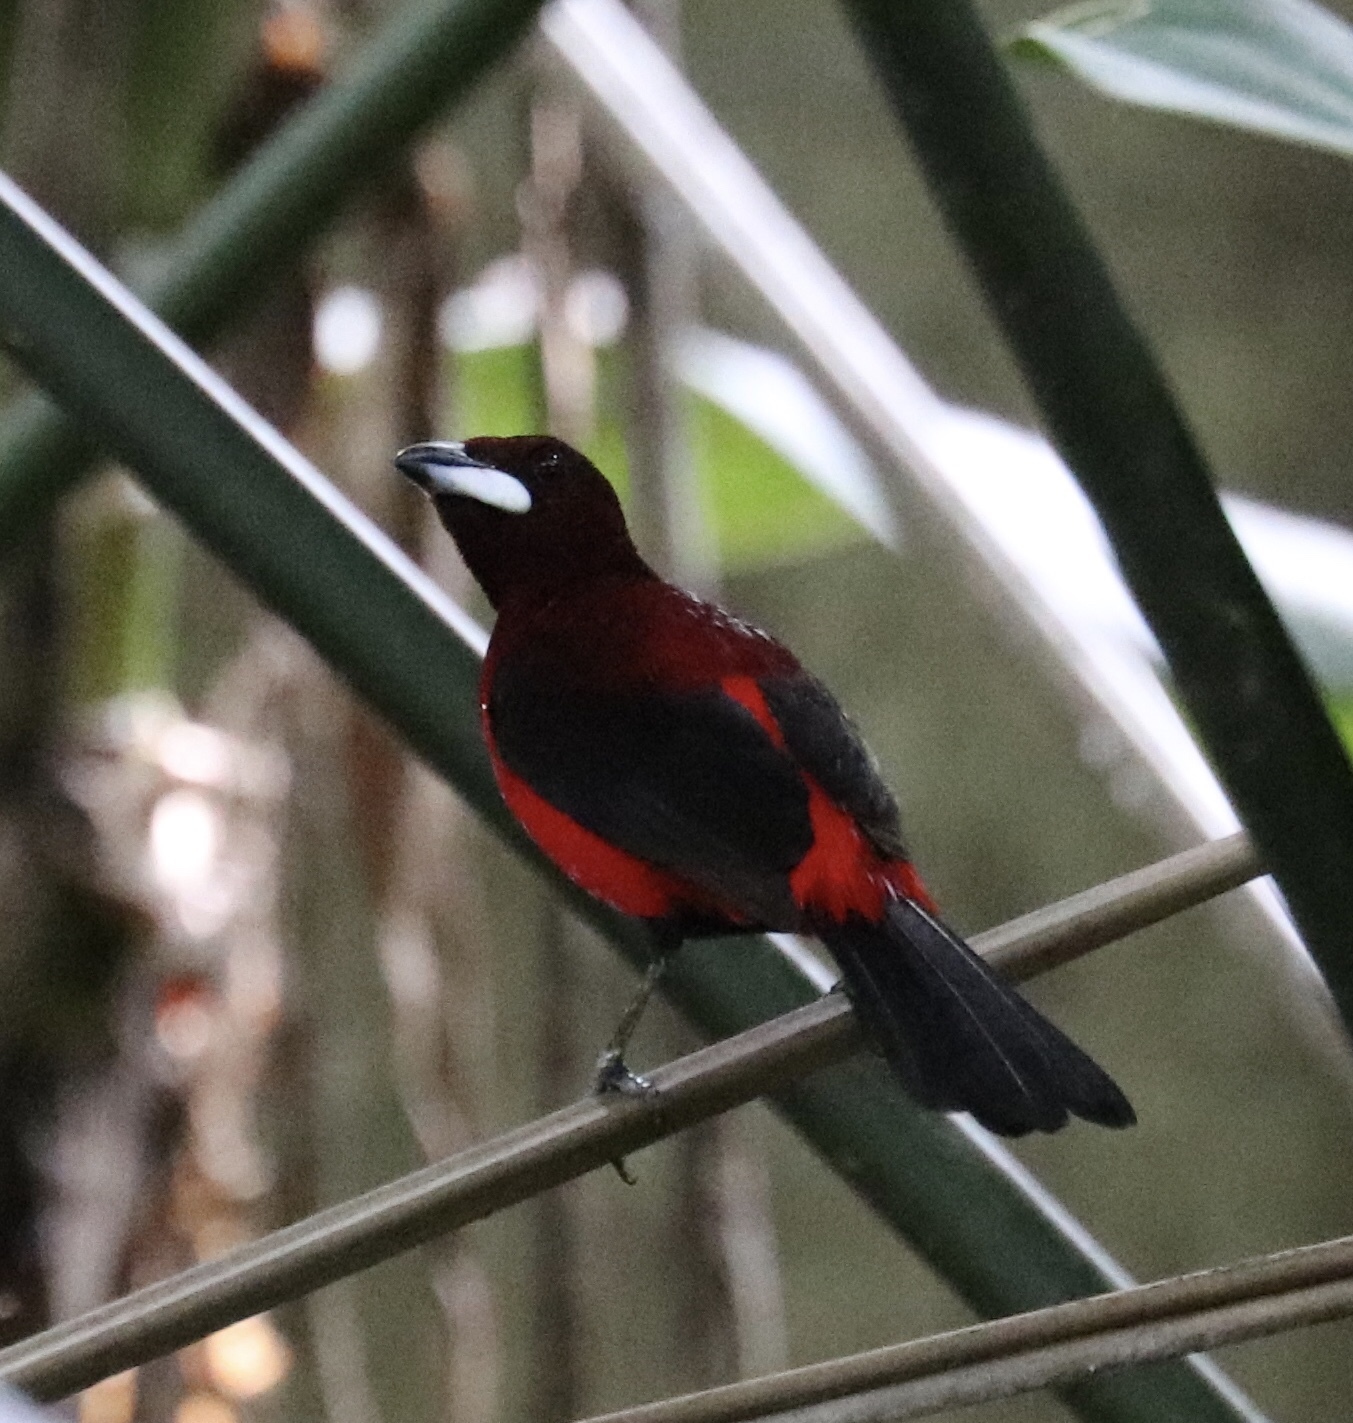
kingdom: Animalia
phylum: Chordata
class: Aves
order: Passeriformes
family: Thraupidae
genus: Ramphocelus
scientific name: Ramphocelus dimidiatus
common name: Crimson-backed tanager
